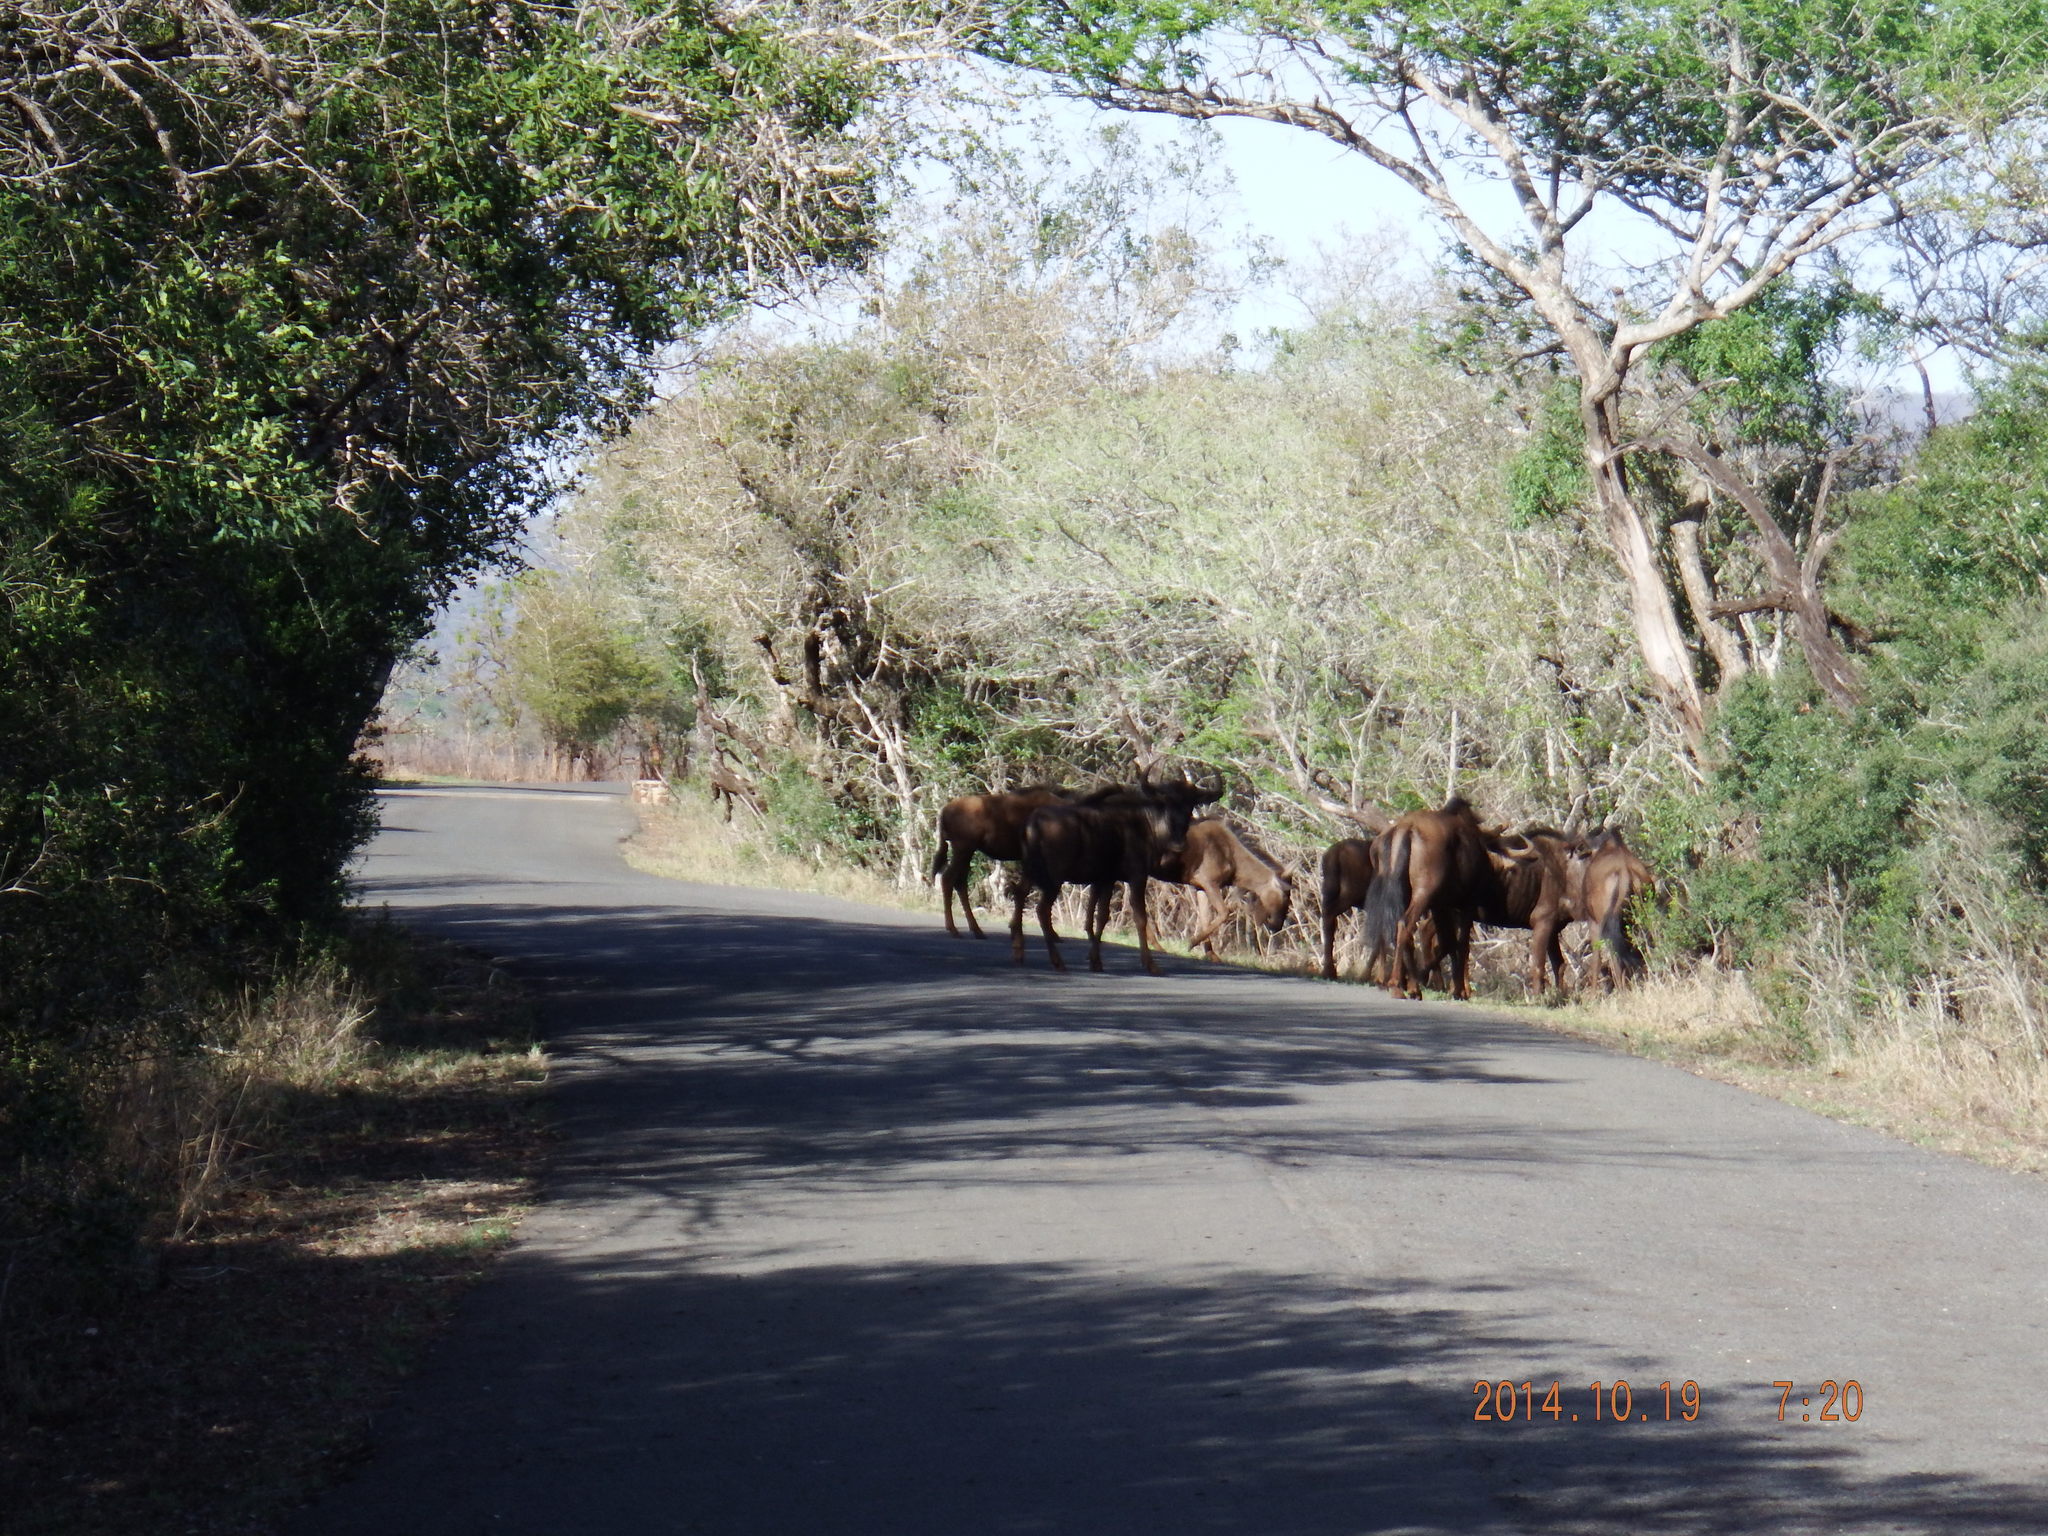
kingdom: Animalia
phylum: Chordata
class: Mammalia
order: Artiodactyla
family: Bovidae
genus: Connochaetes
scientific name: Connochaetes taurinus
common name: Blue wildebeest
